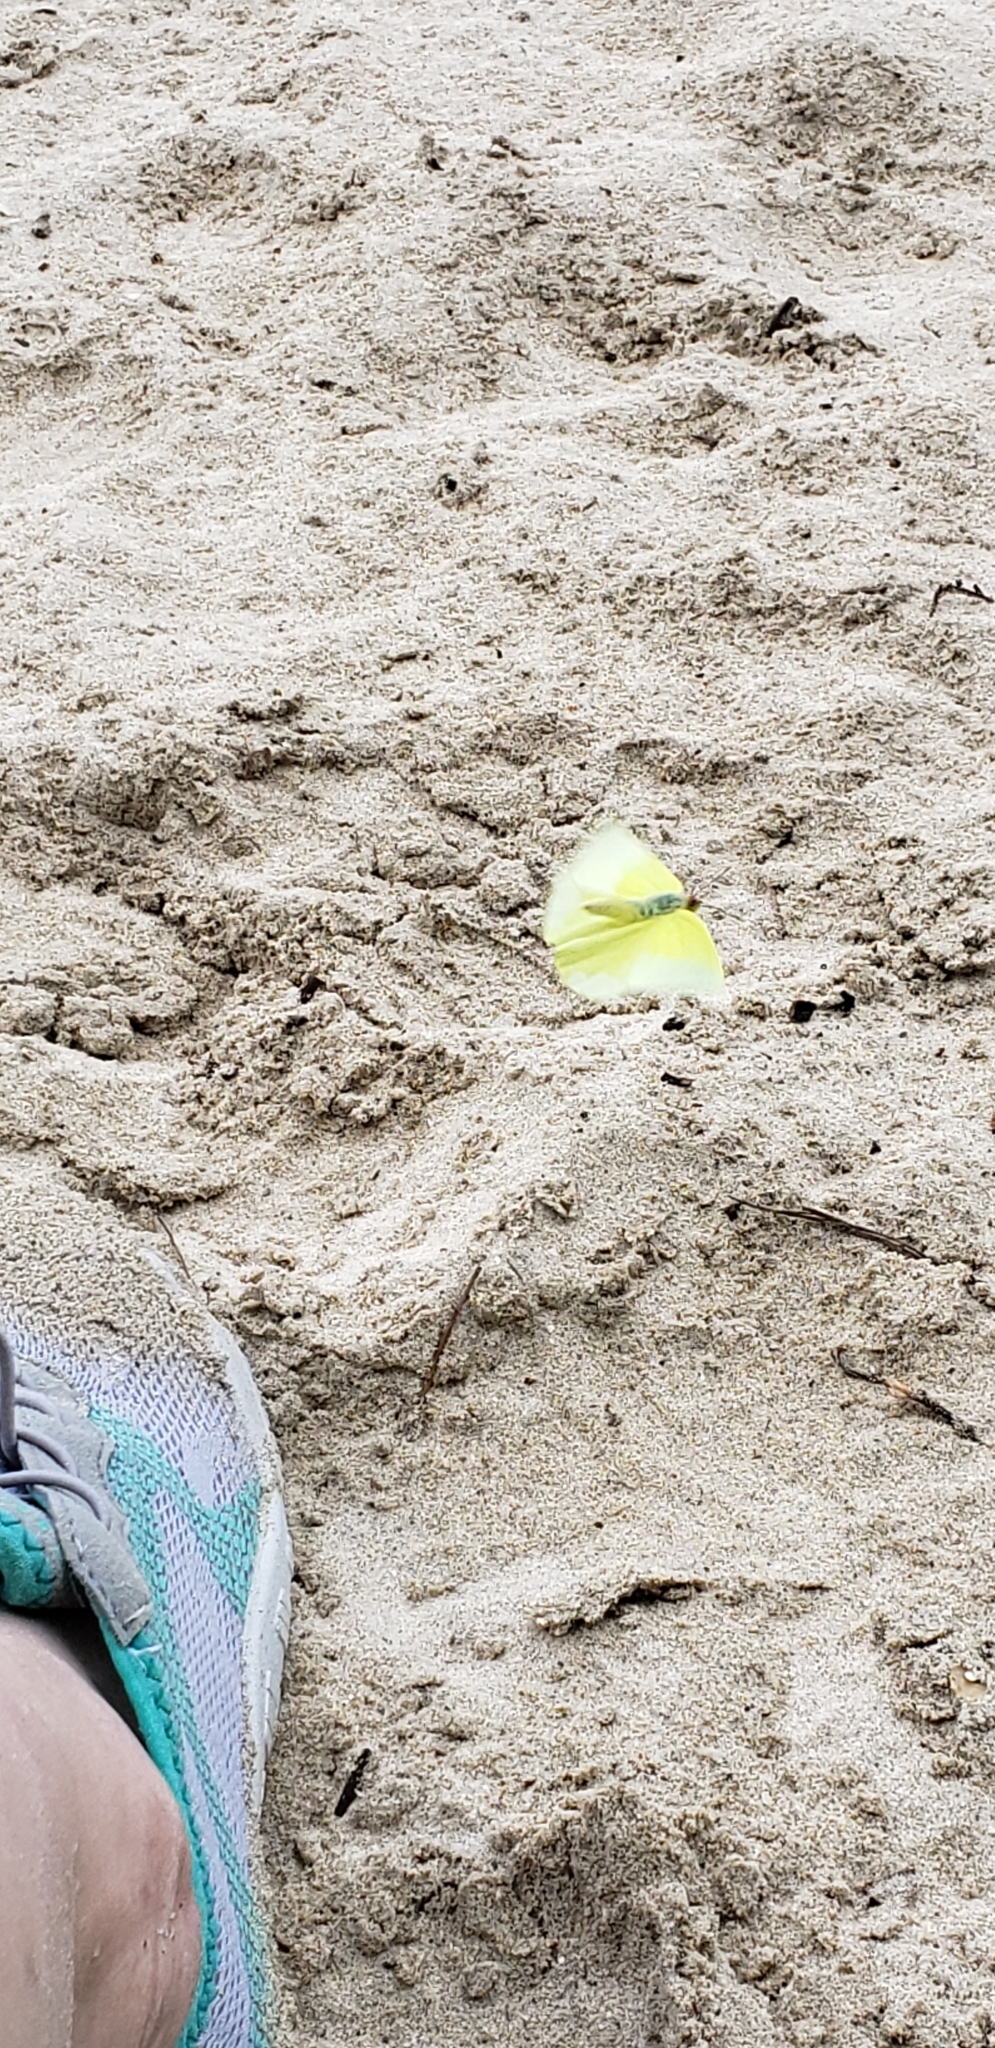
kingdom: Animalia
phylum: Arthropoda
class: Insecta
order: Lepidoptera
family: Pieridae
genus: Aphrissa
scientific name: Aphrissa statira
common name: Statira sulphur
